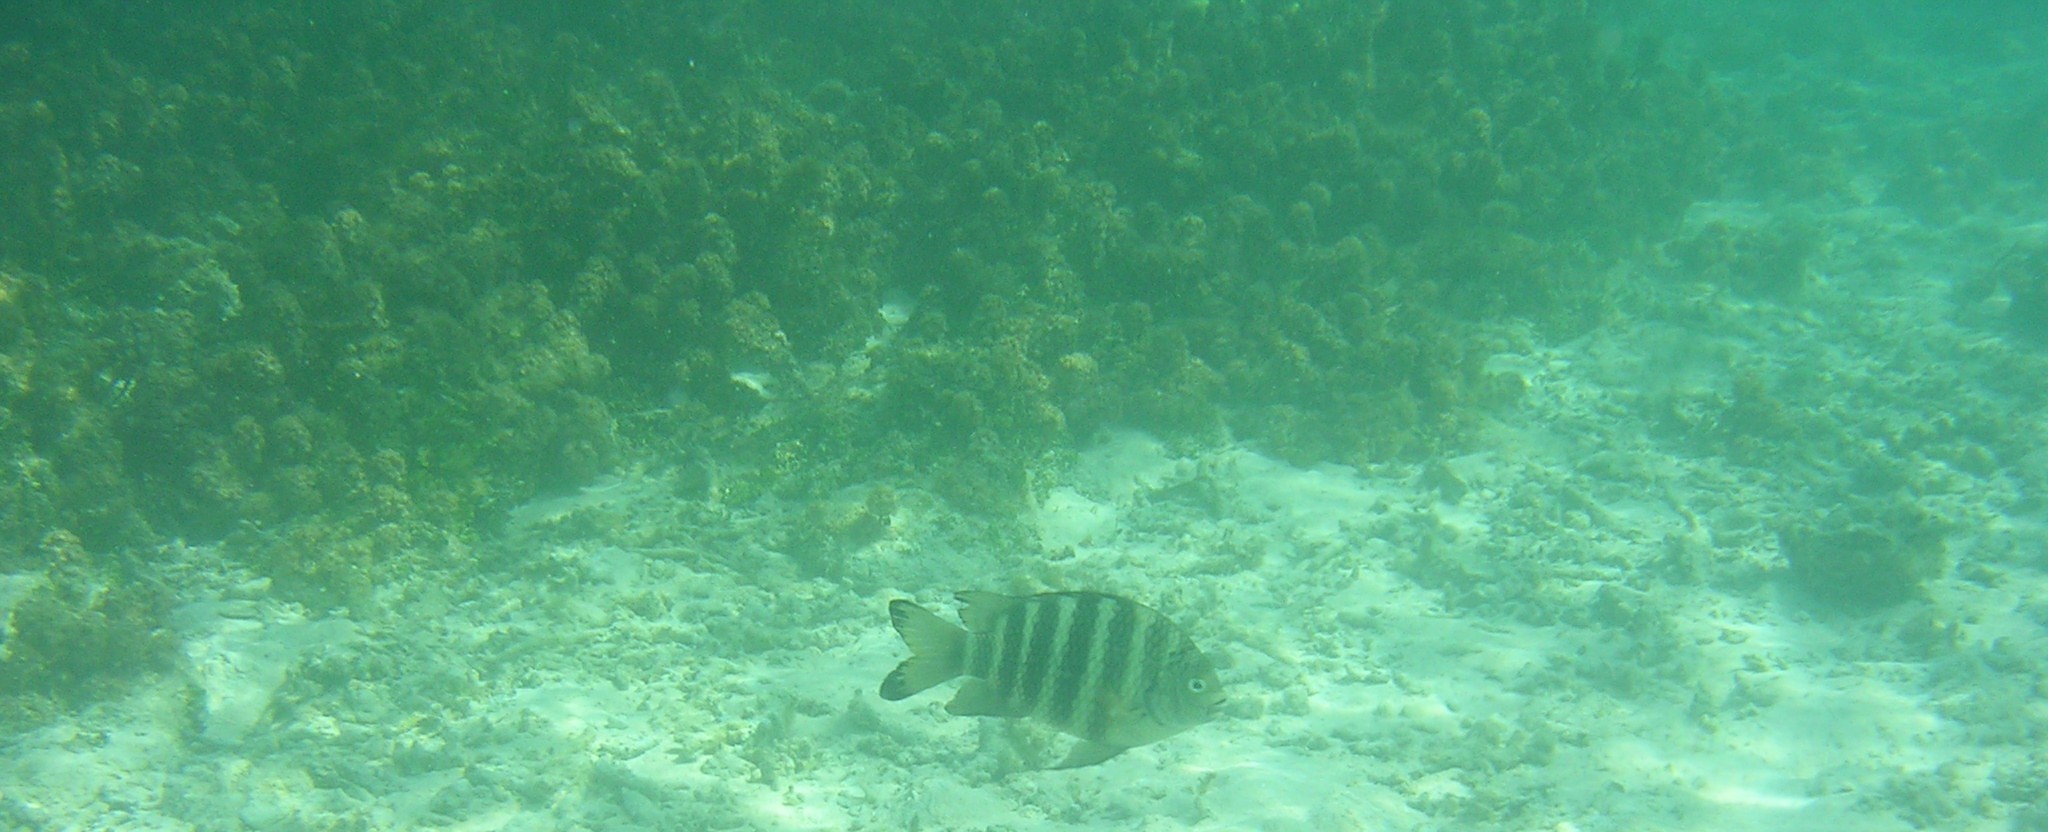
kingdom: Animalia
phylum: Chordata
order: Perciformes
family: Pomacentridae
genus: Abudefduf
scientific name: Abudefduf septemfasciatus
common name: Banded sergeant
